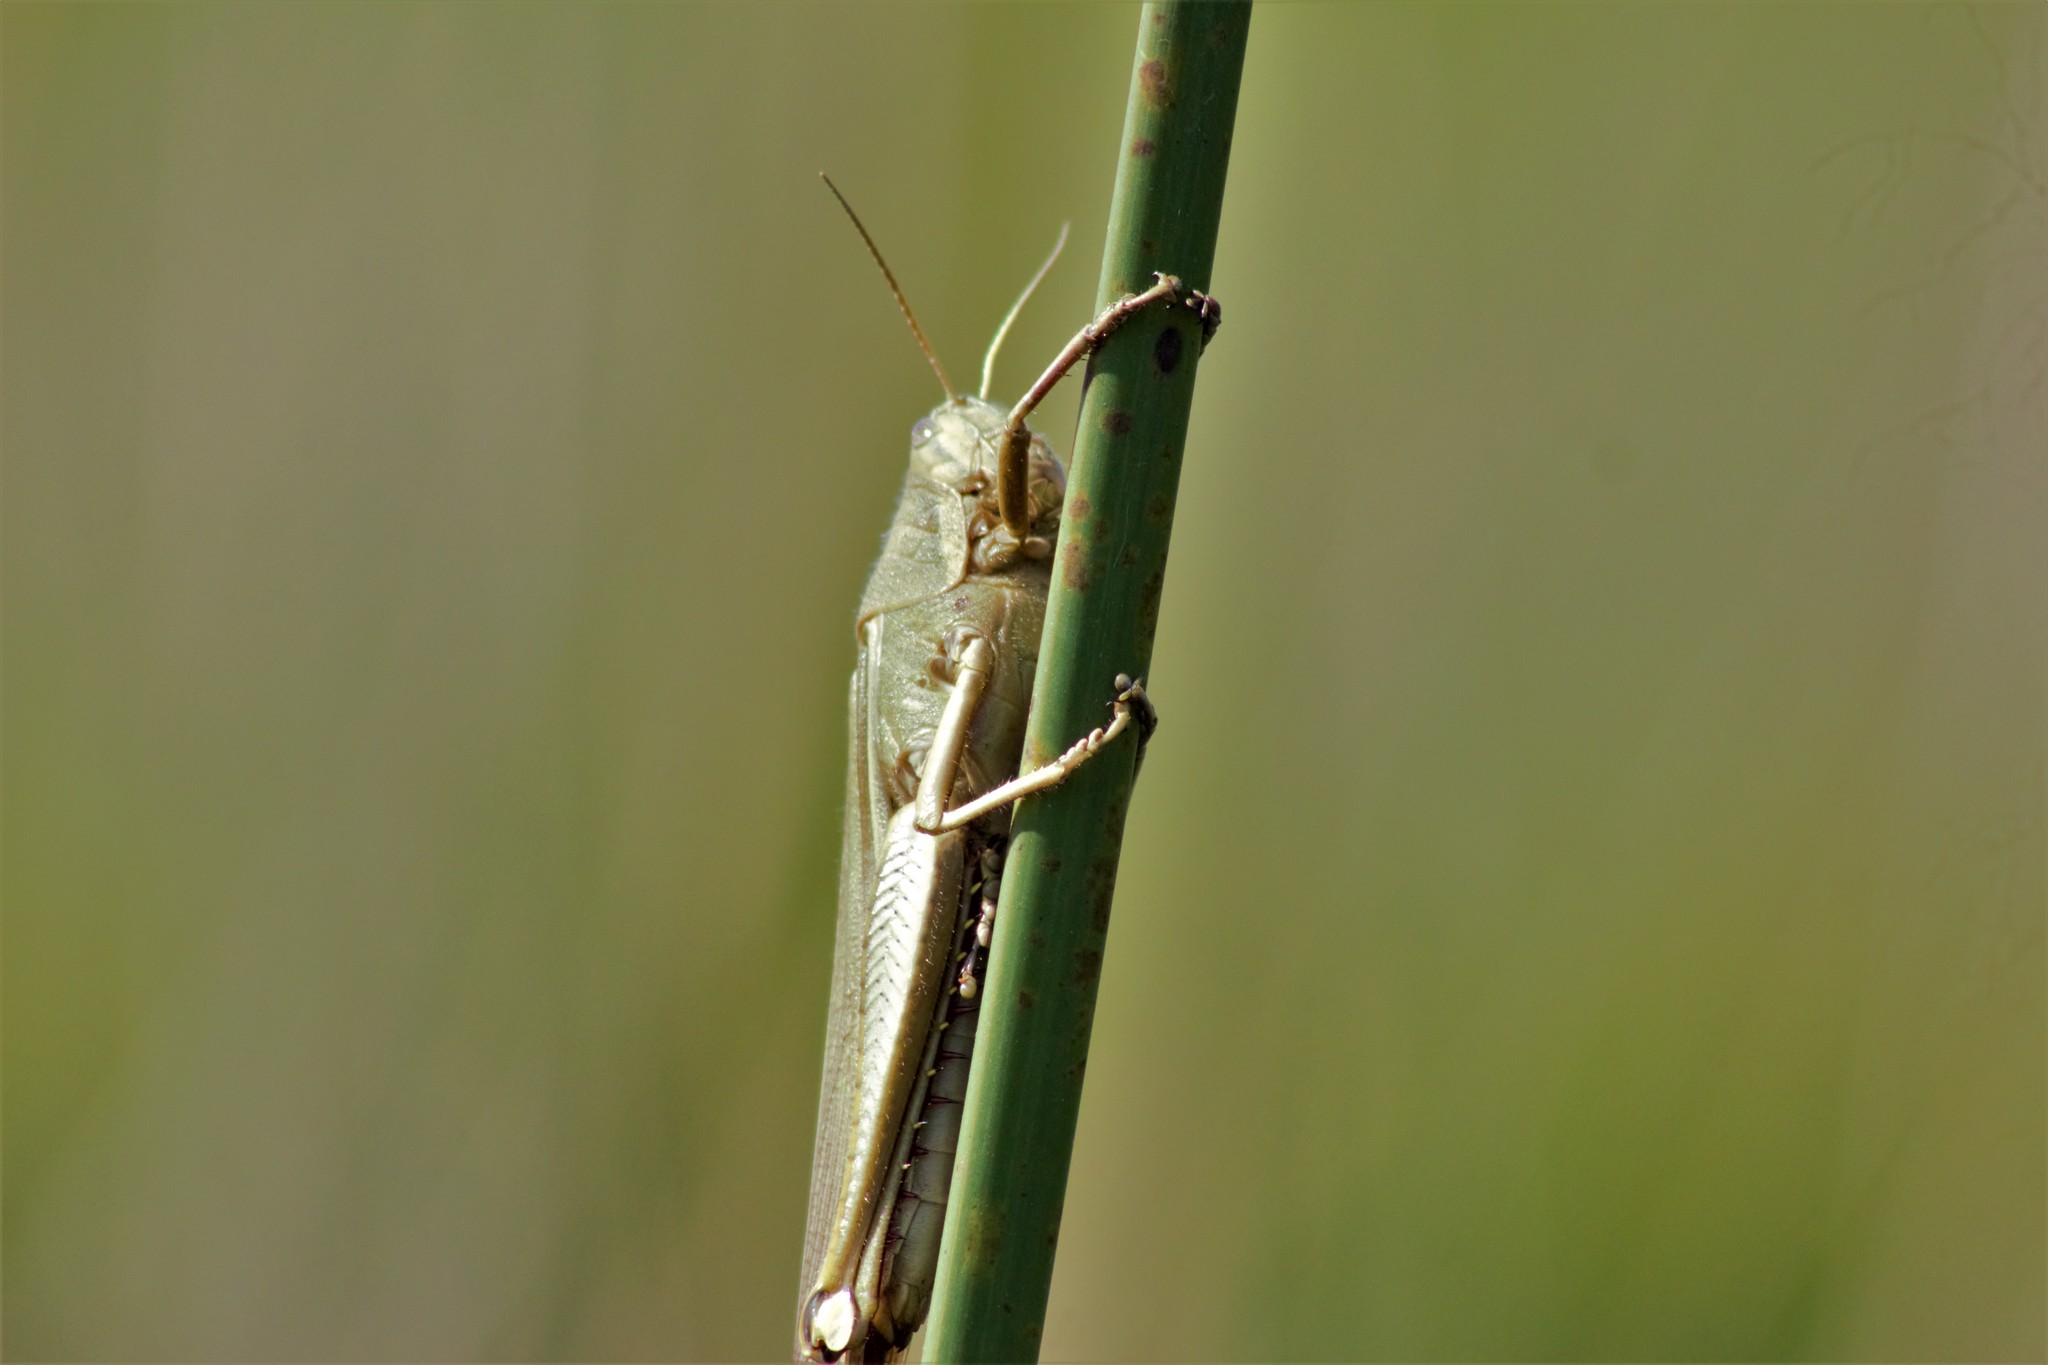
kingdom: Animalia
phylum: Arthropoda
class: Insecta
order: Orthoptera
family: Acrididae
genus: Schistocerca
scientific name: Schistocerca flavofasciata
